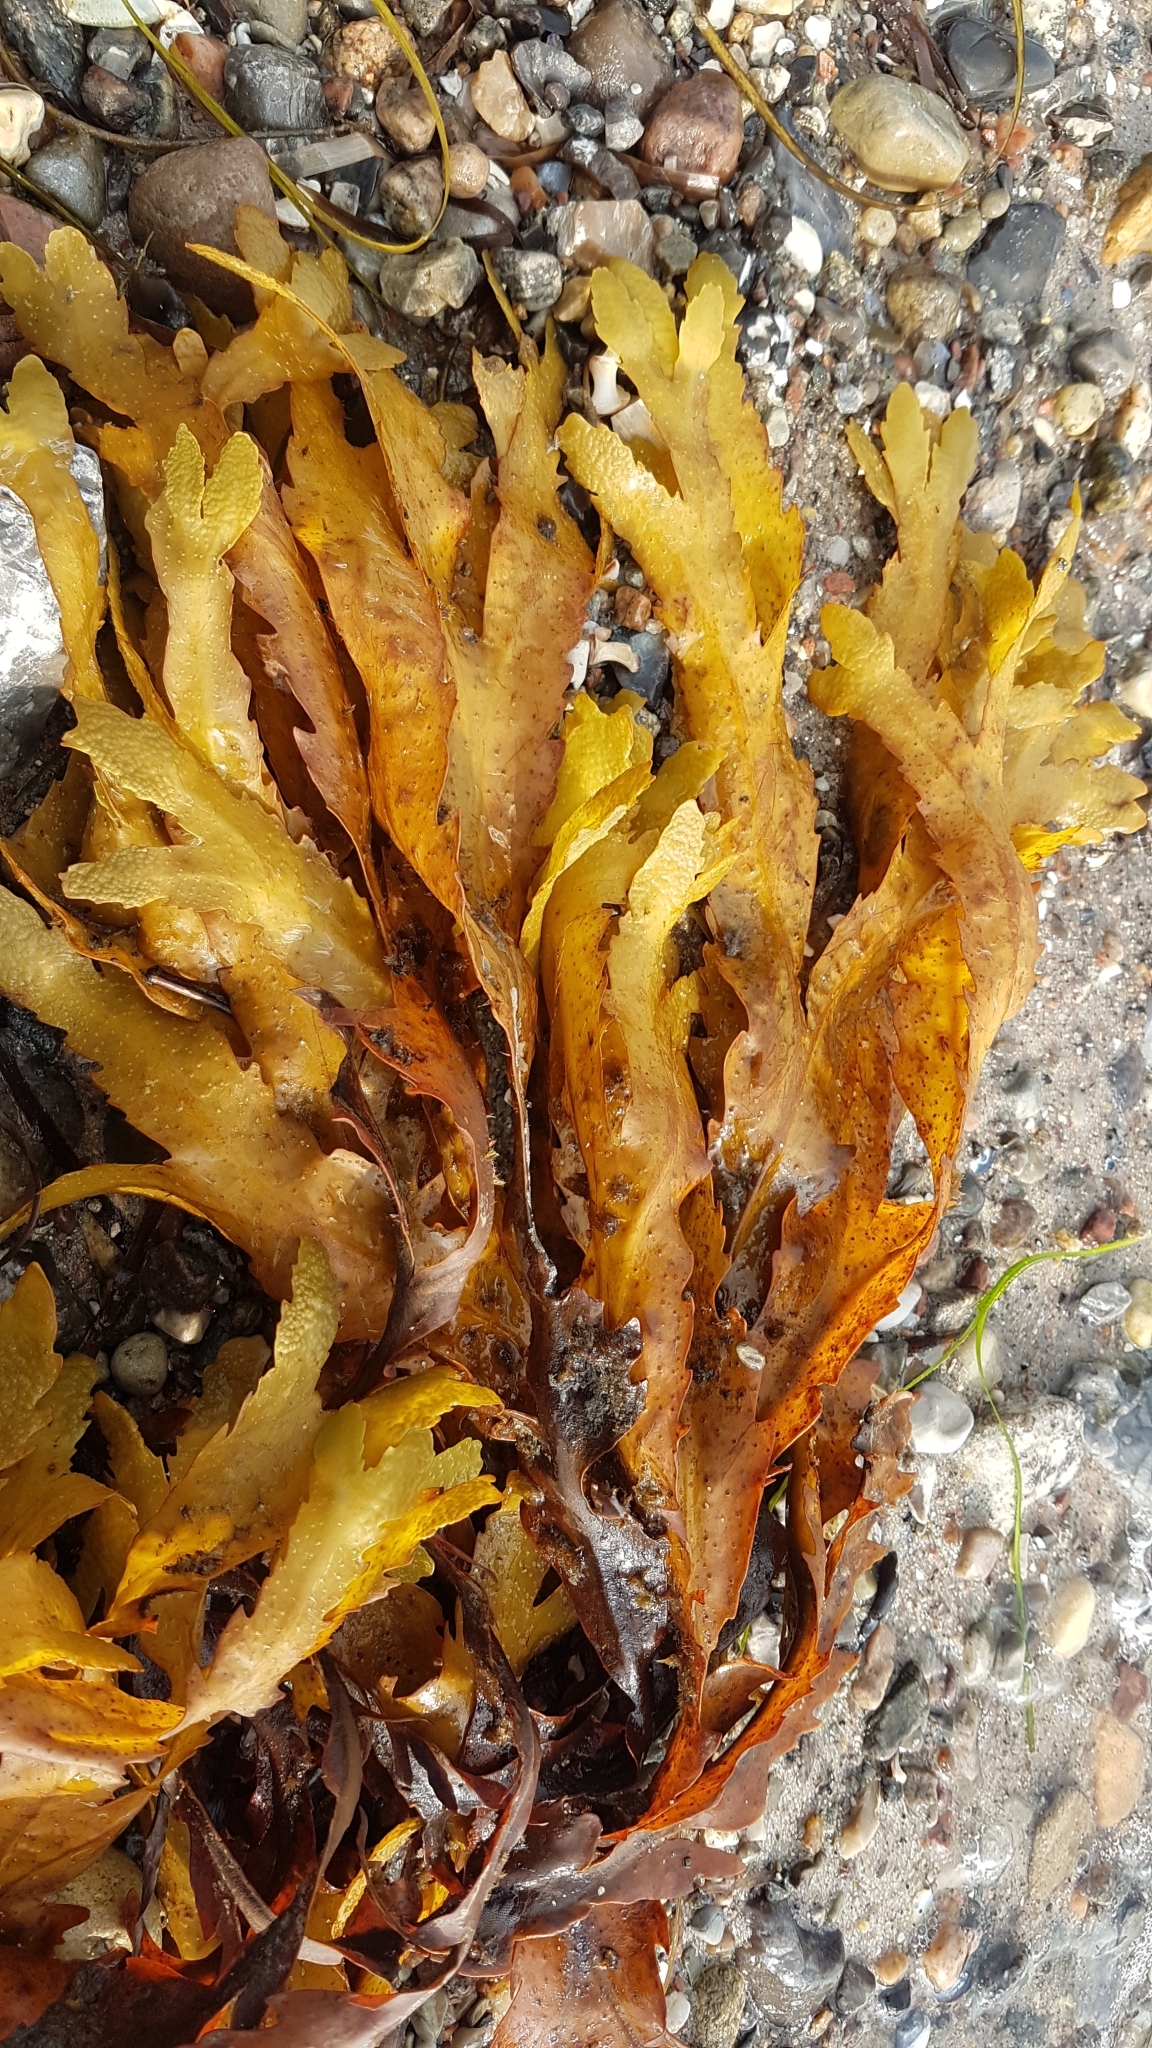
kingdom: Chromista
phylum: Ochrophyta
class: Phaeophyceae
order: Fucales
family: Fucaceae
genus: Fucus
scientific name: Fucus serratus
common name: Toothed wrack
